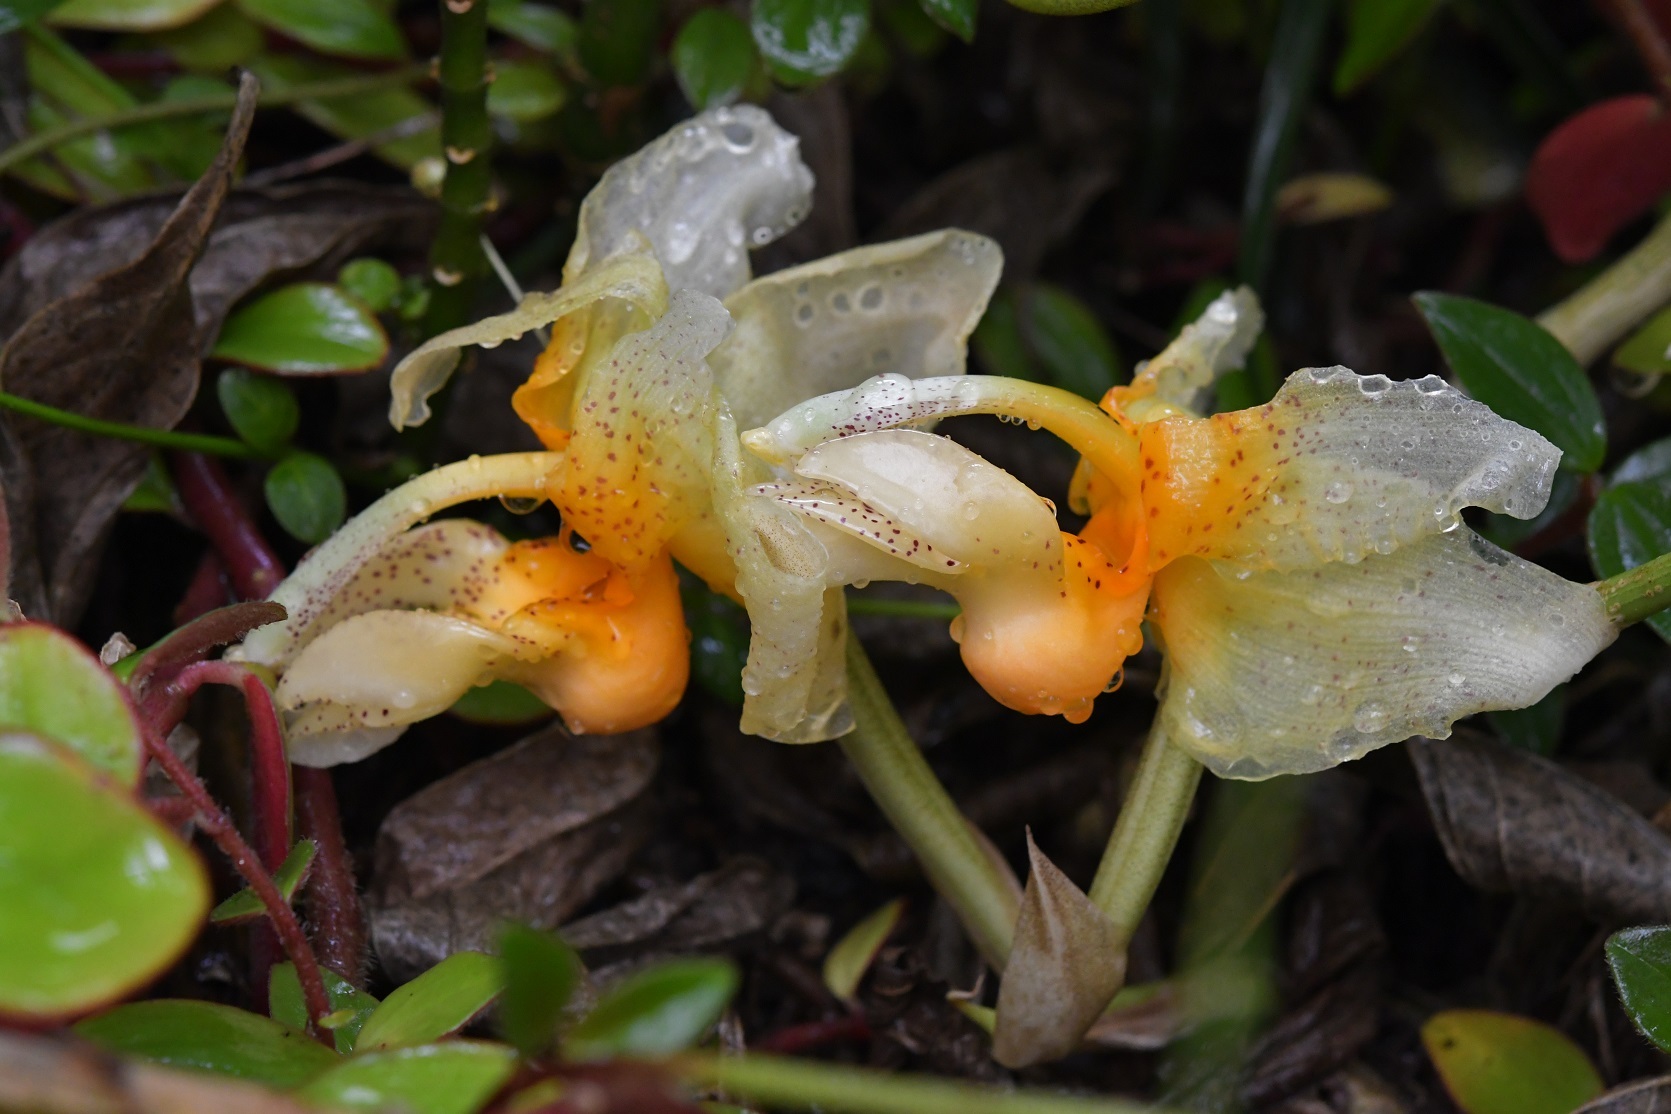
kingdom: Plantae
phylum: Tracheophyta
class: Liliopsida
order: Asparagales
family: Orchidaceae
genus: Stanhopea
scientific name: Stanhopea saccata
